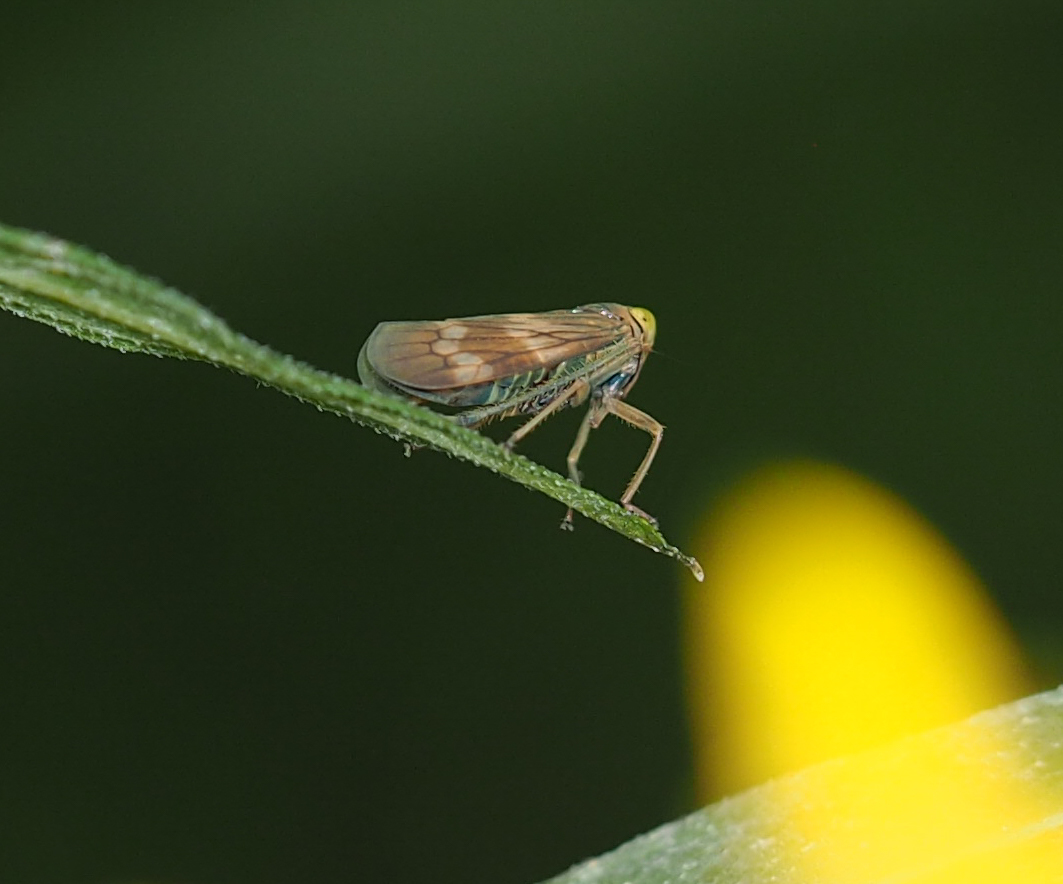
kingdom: Animalia
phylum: Arthropoda
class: Insecta
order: Hemiptera
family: Cicadellidae
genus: Jikradia
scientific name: Jikradia olitoria
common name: Coppery leafhopper
